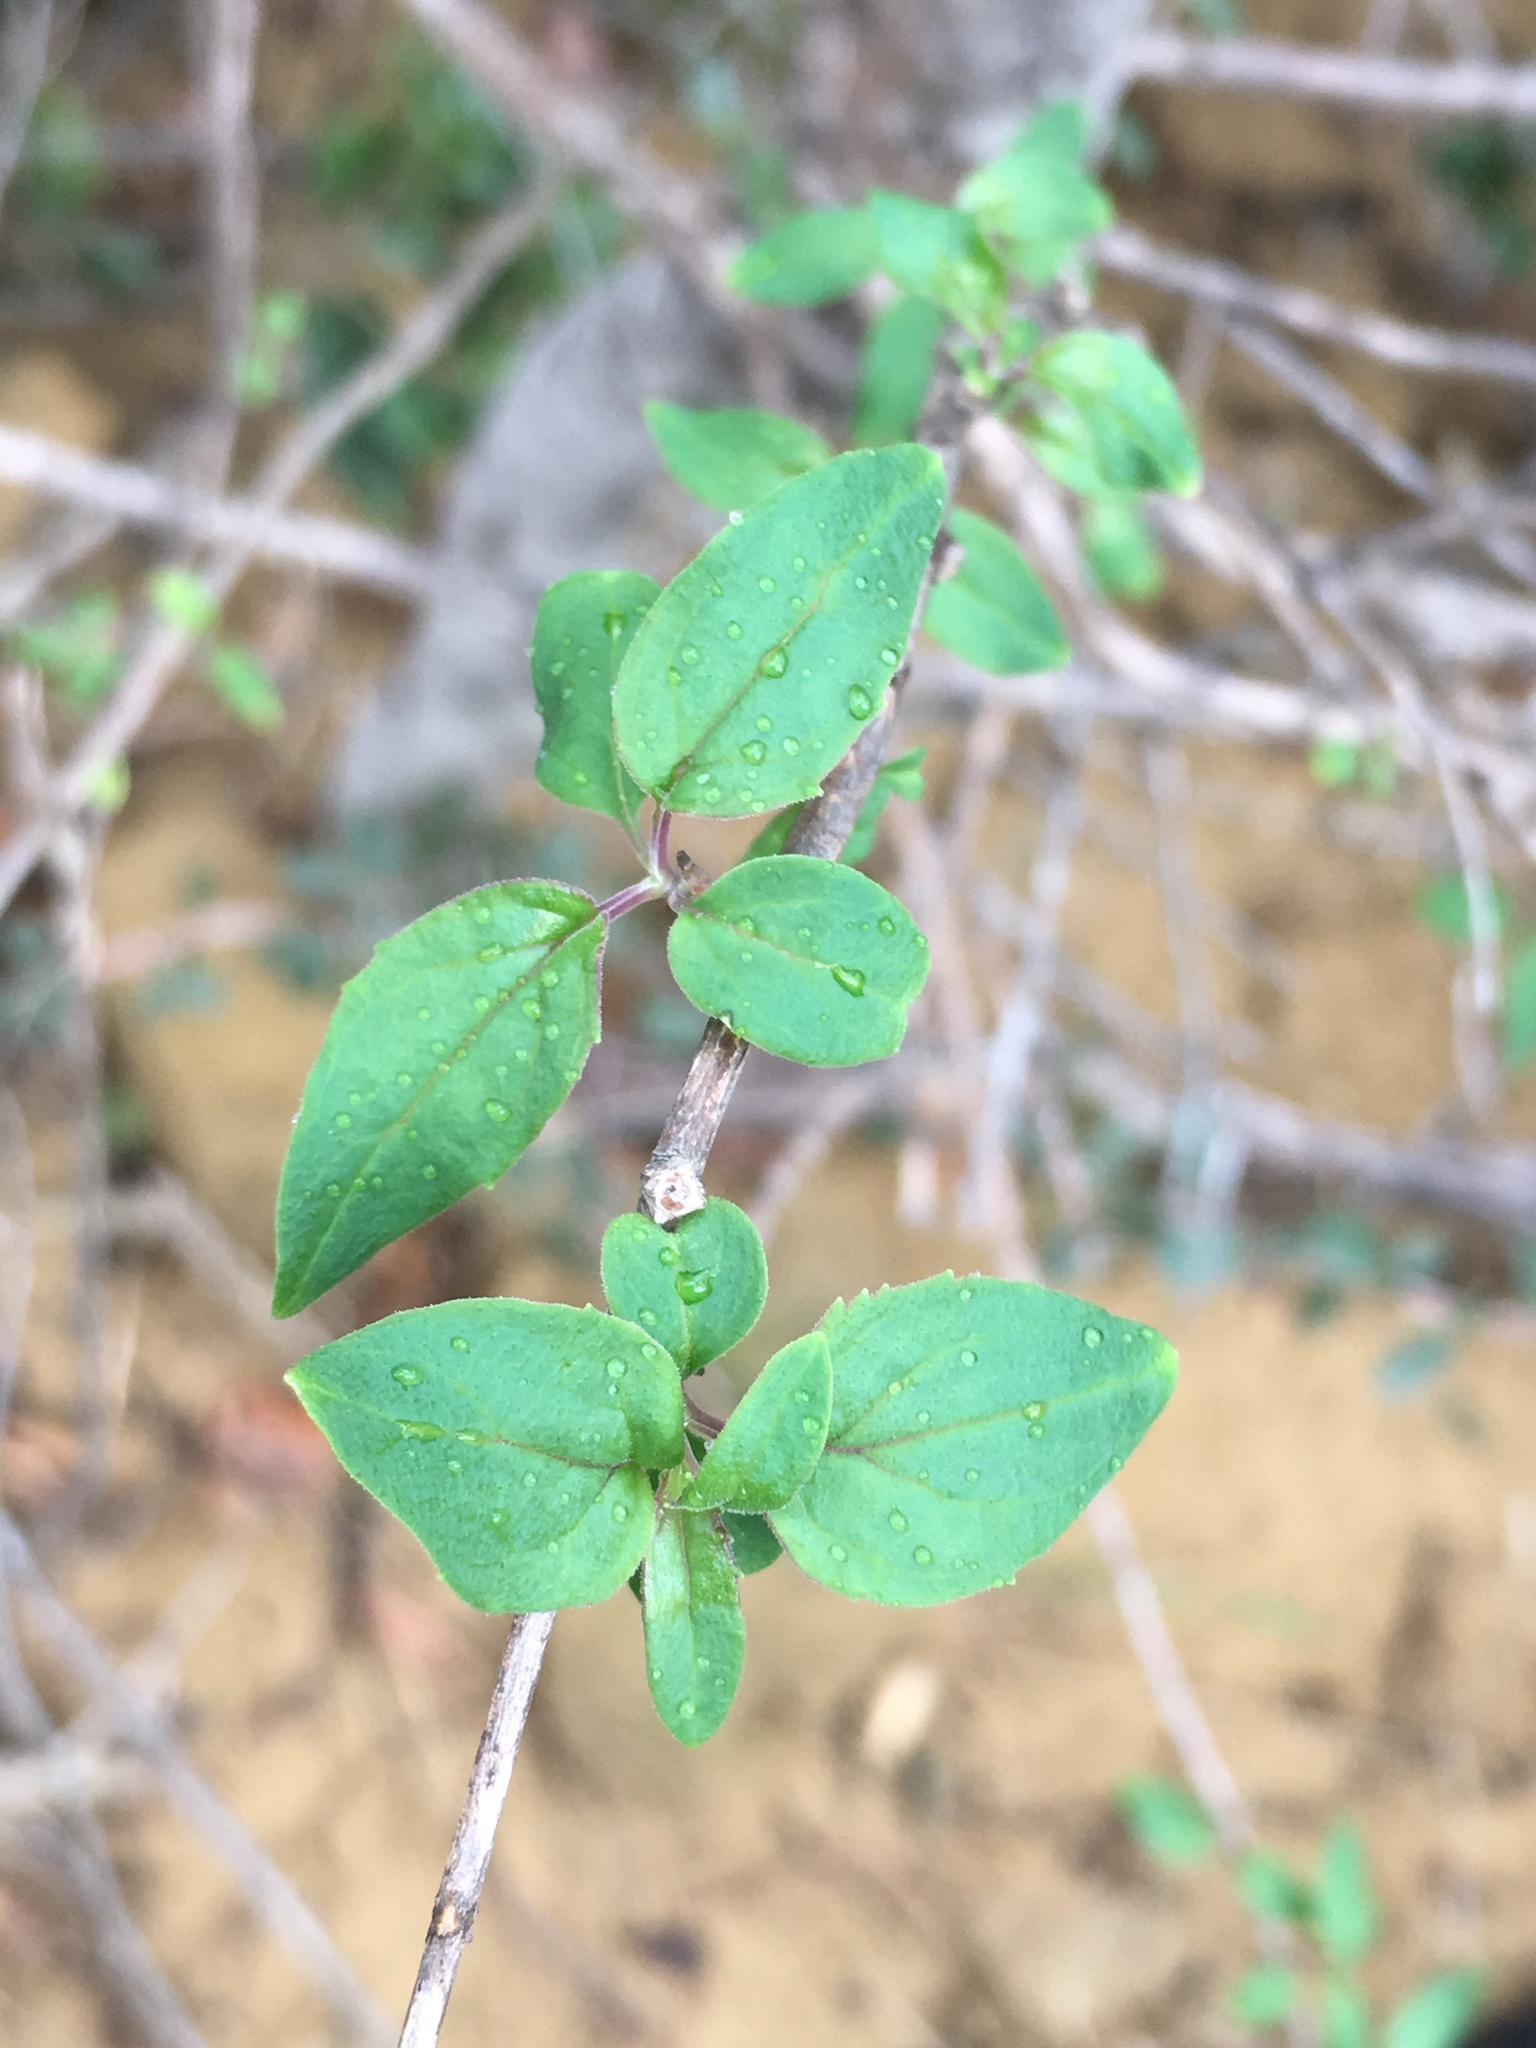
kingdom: Plantae
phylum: Tracheophyta
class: Magnoliopsida
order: Lamiales
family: Plantaginaceae
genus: Keckiella
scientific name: Keckiella cordifolia
